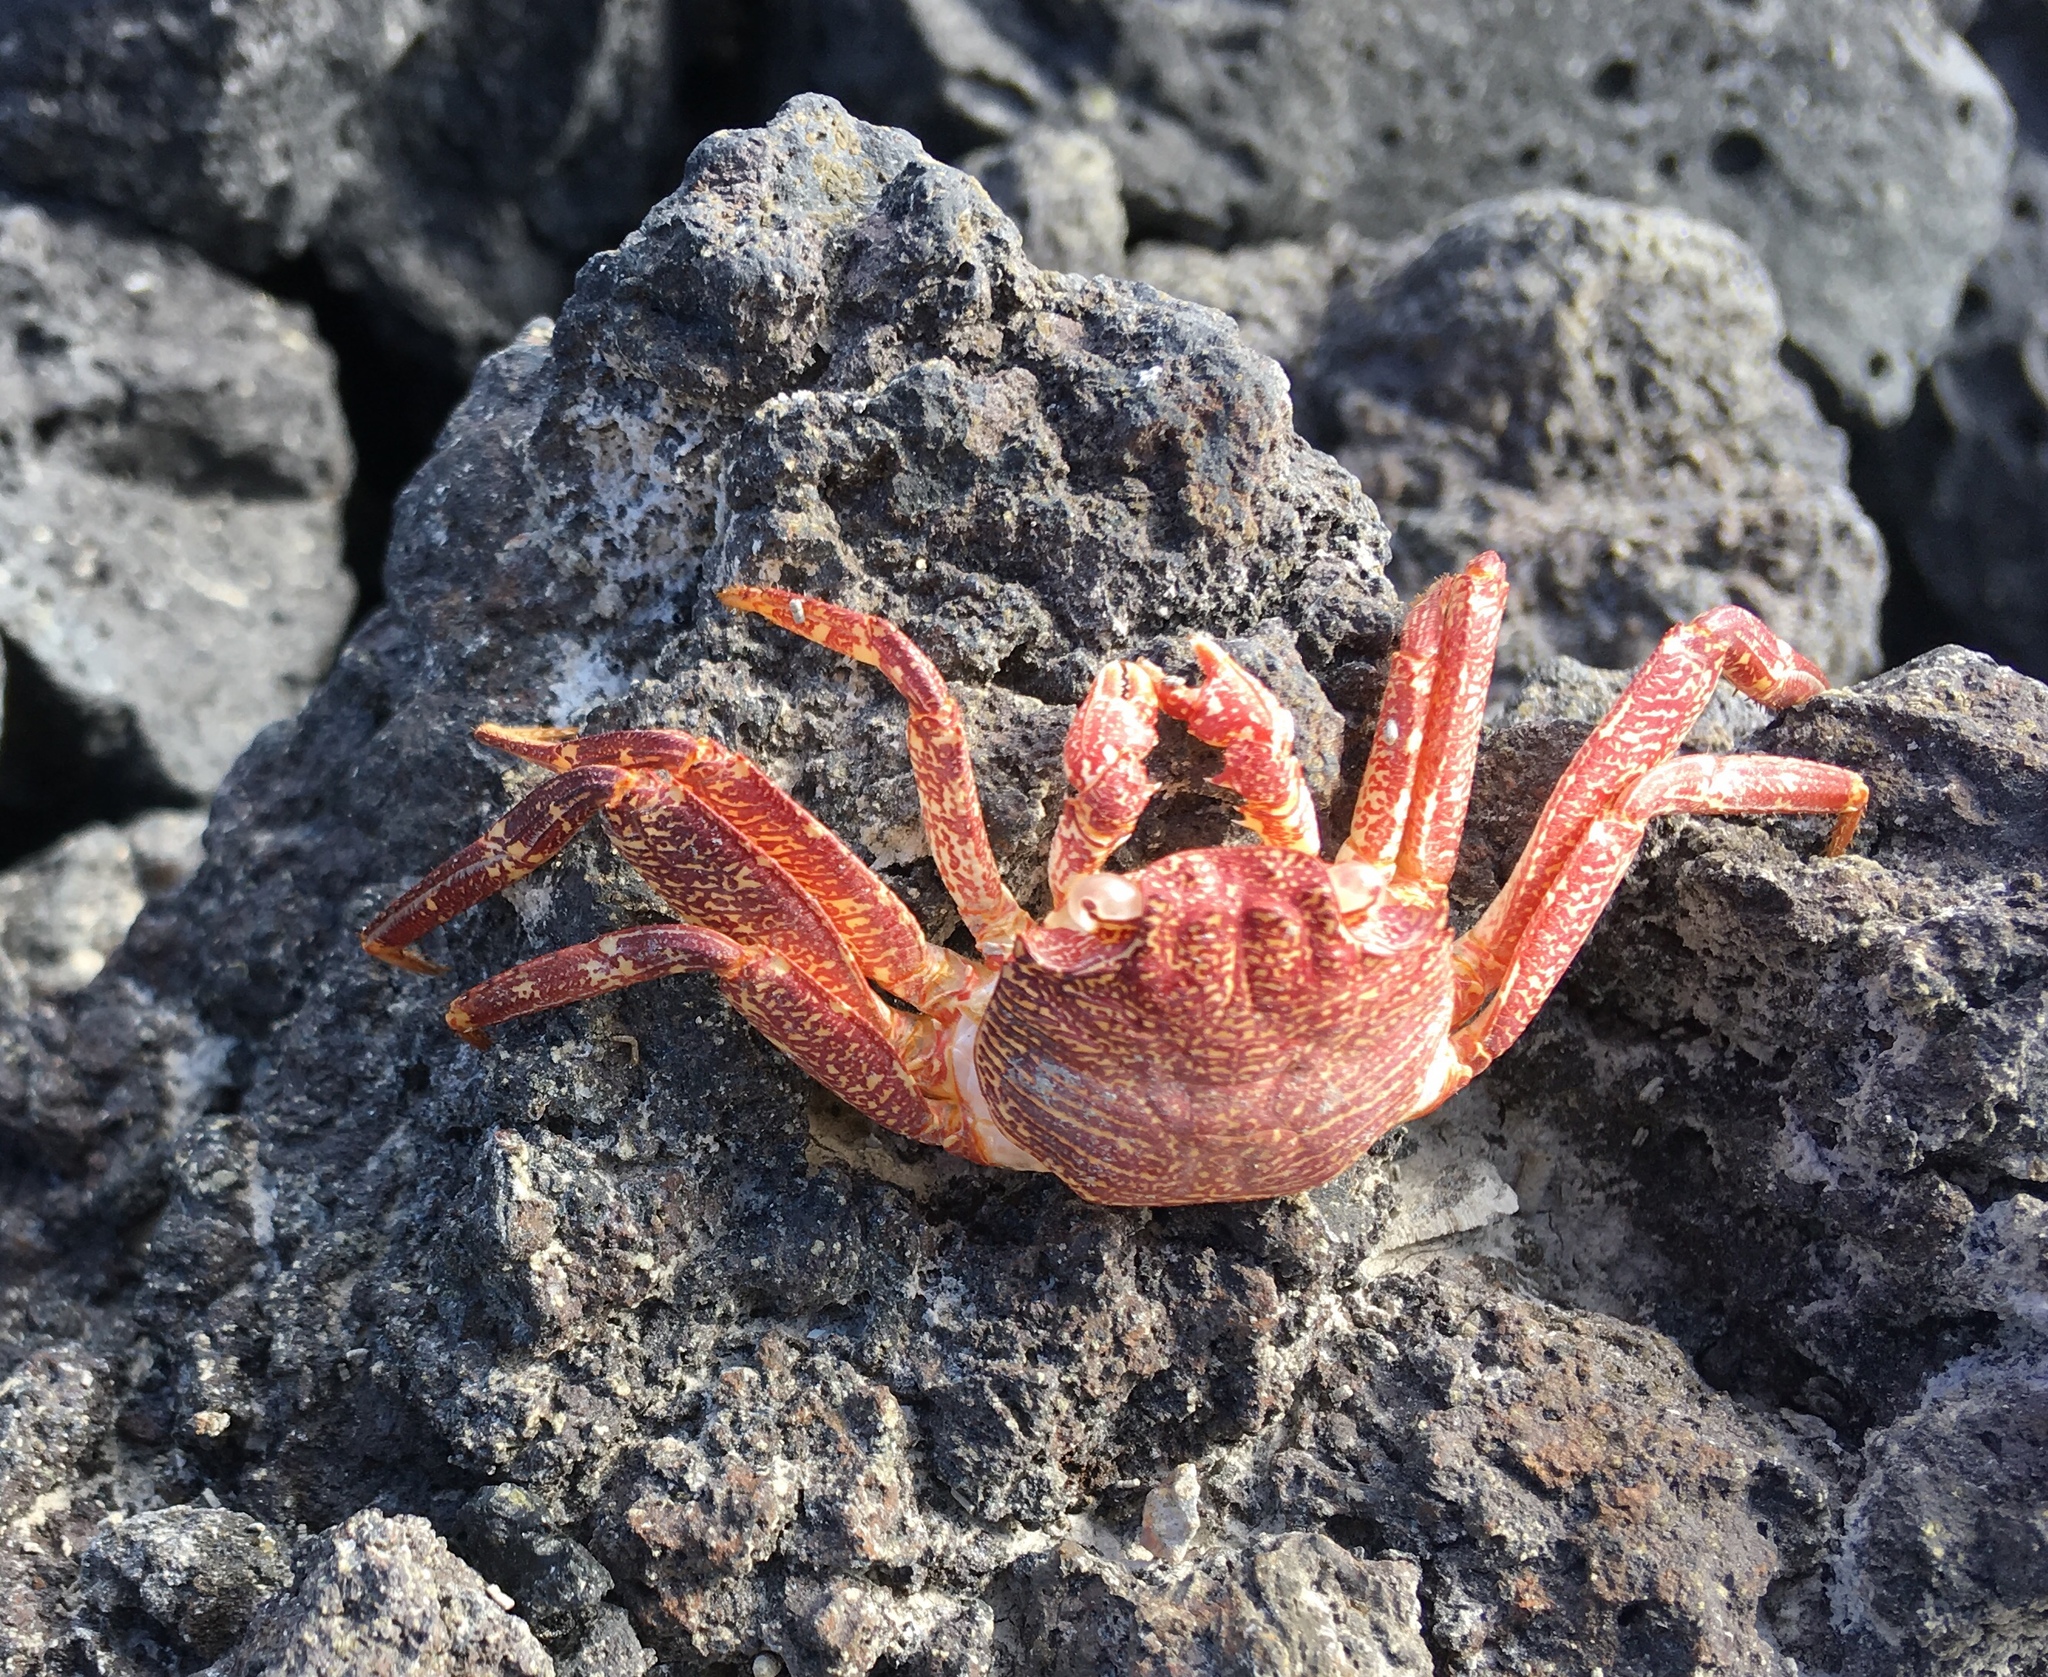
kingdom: Animalia
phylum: Arthropoda
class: Malacostraca
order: Decapoda
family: Grapsidae
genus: Grapsus
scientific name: Grapsus tenuicrustatus
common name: Natal lightfoot crab
